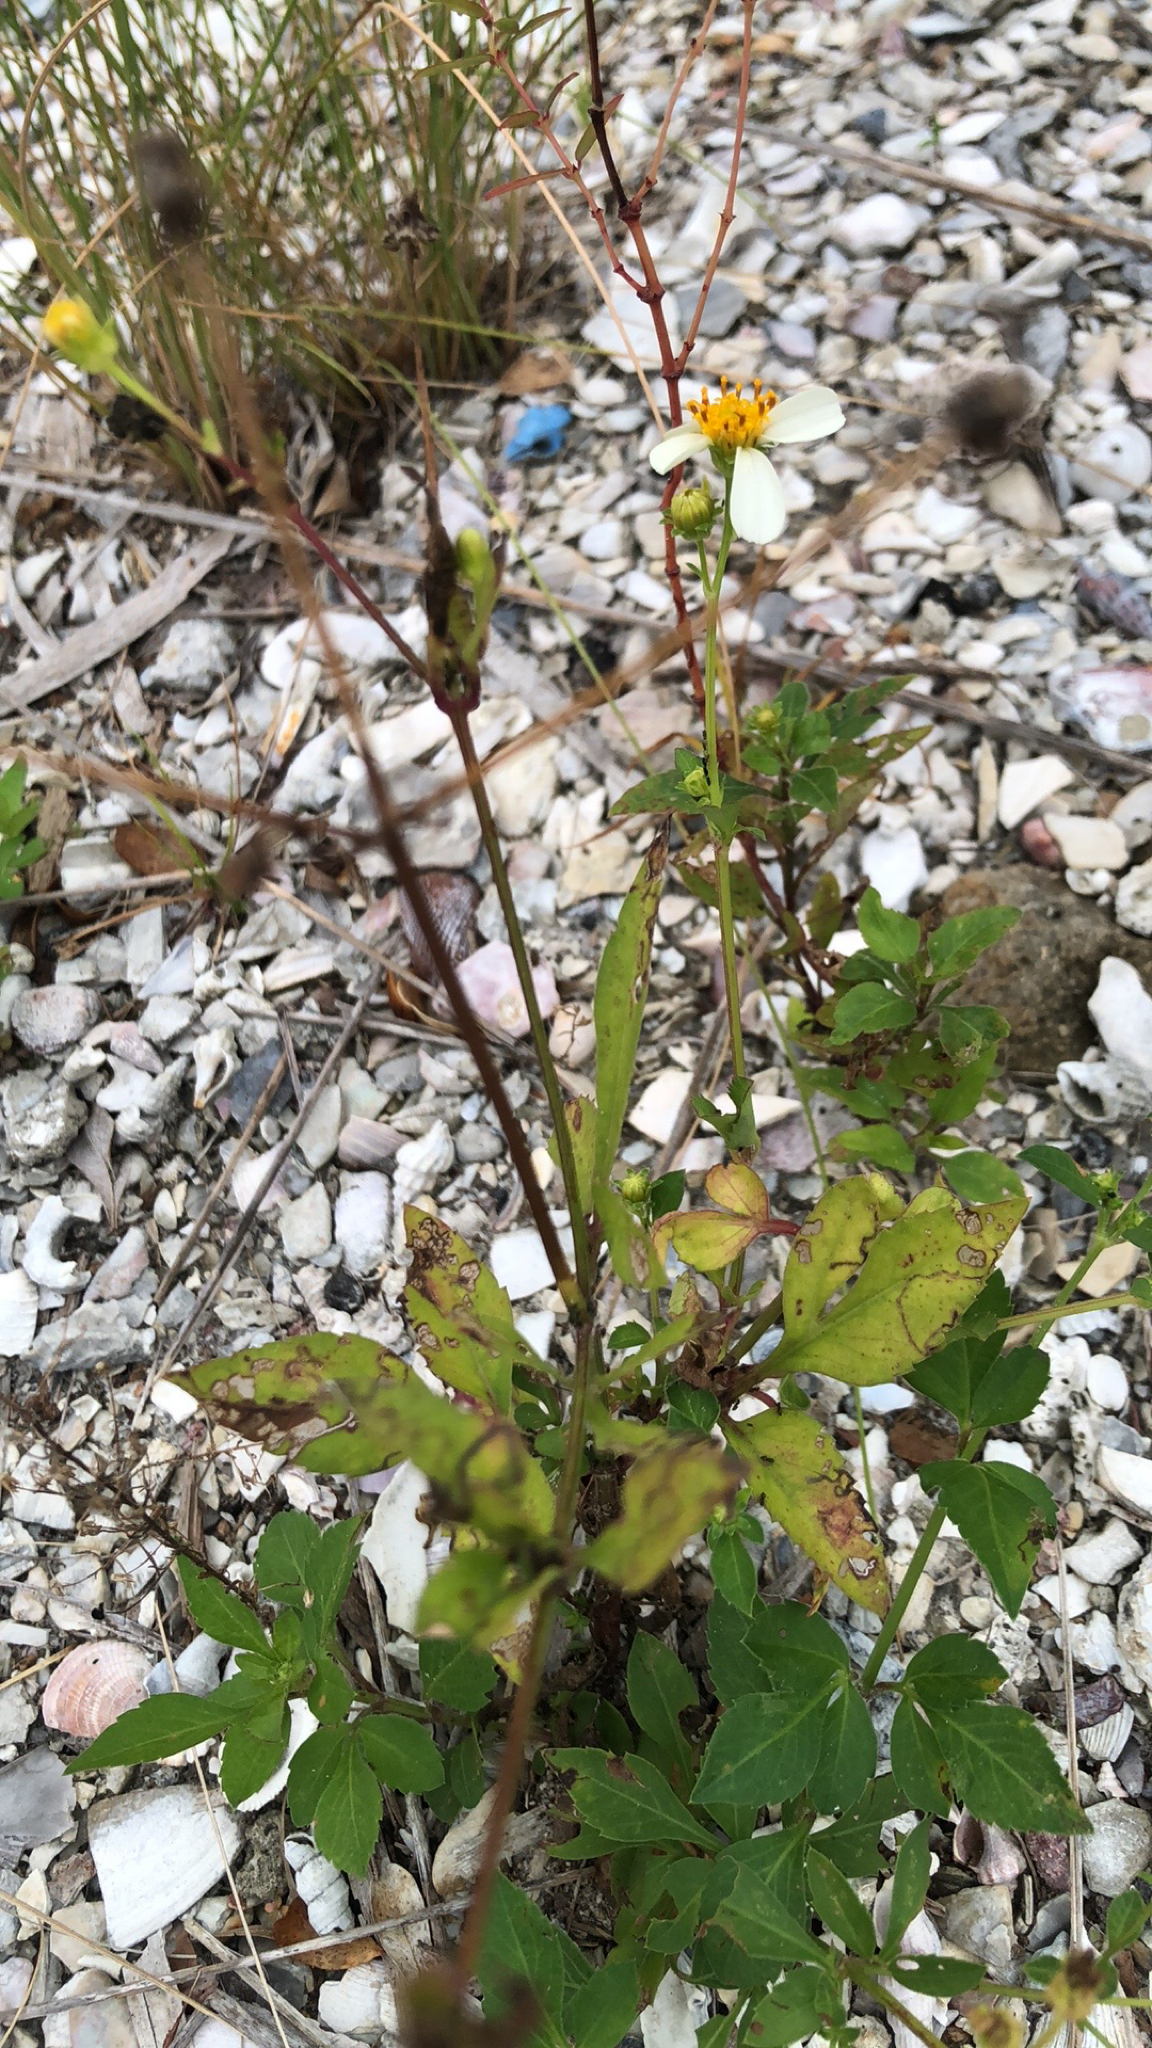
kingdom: Plantae
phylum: Tracheophyta
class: Magnoliopsida
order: Asterales
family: Asteraceae
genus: Bidens
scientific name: Bidens alba
